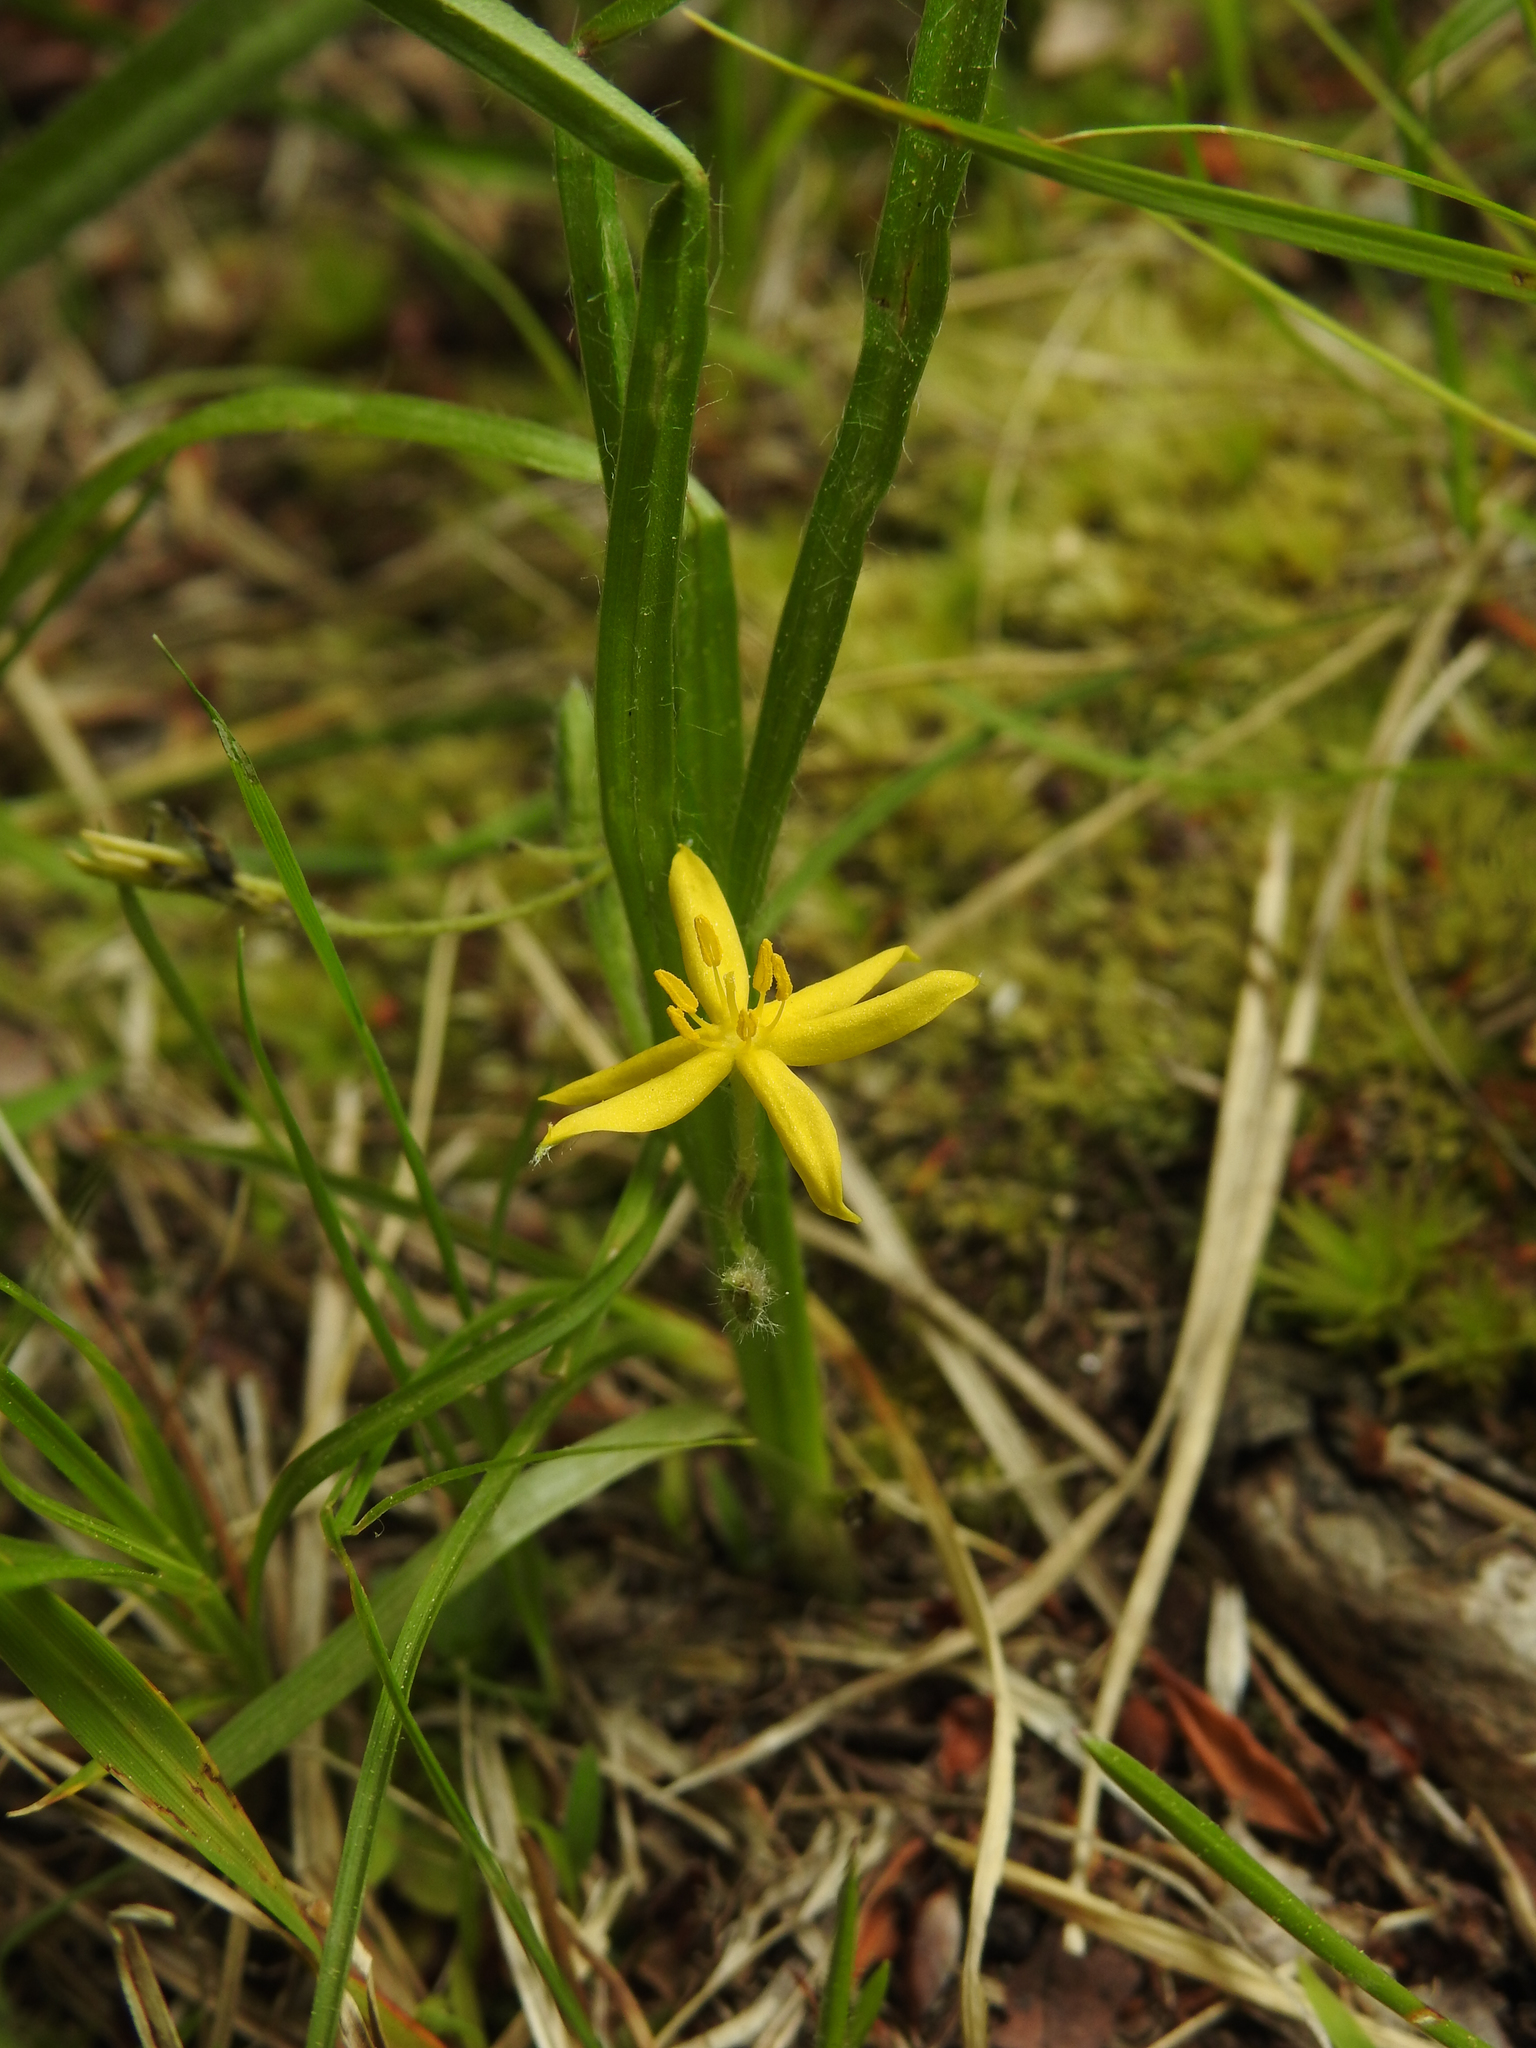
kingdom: Plantae
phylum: Tracheophyta
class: Liliopsida
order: Asparagales
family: Hypoxidaceae
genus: Hypoxis
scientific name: Hypoxis hirsuta
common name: Common goldstar
